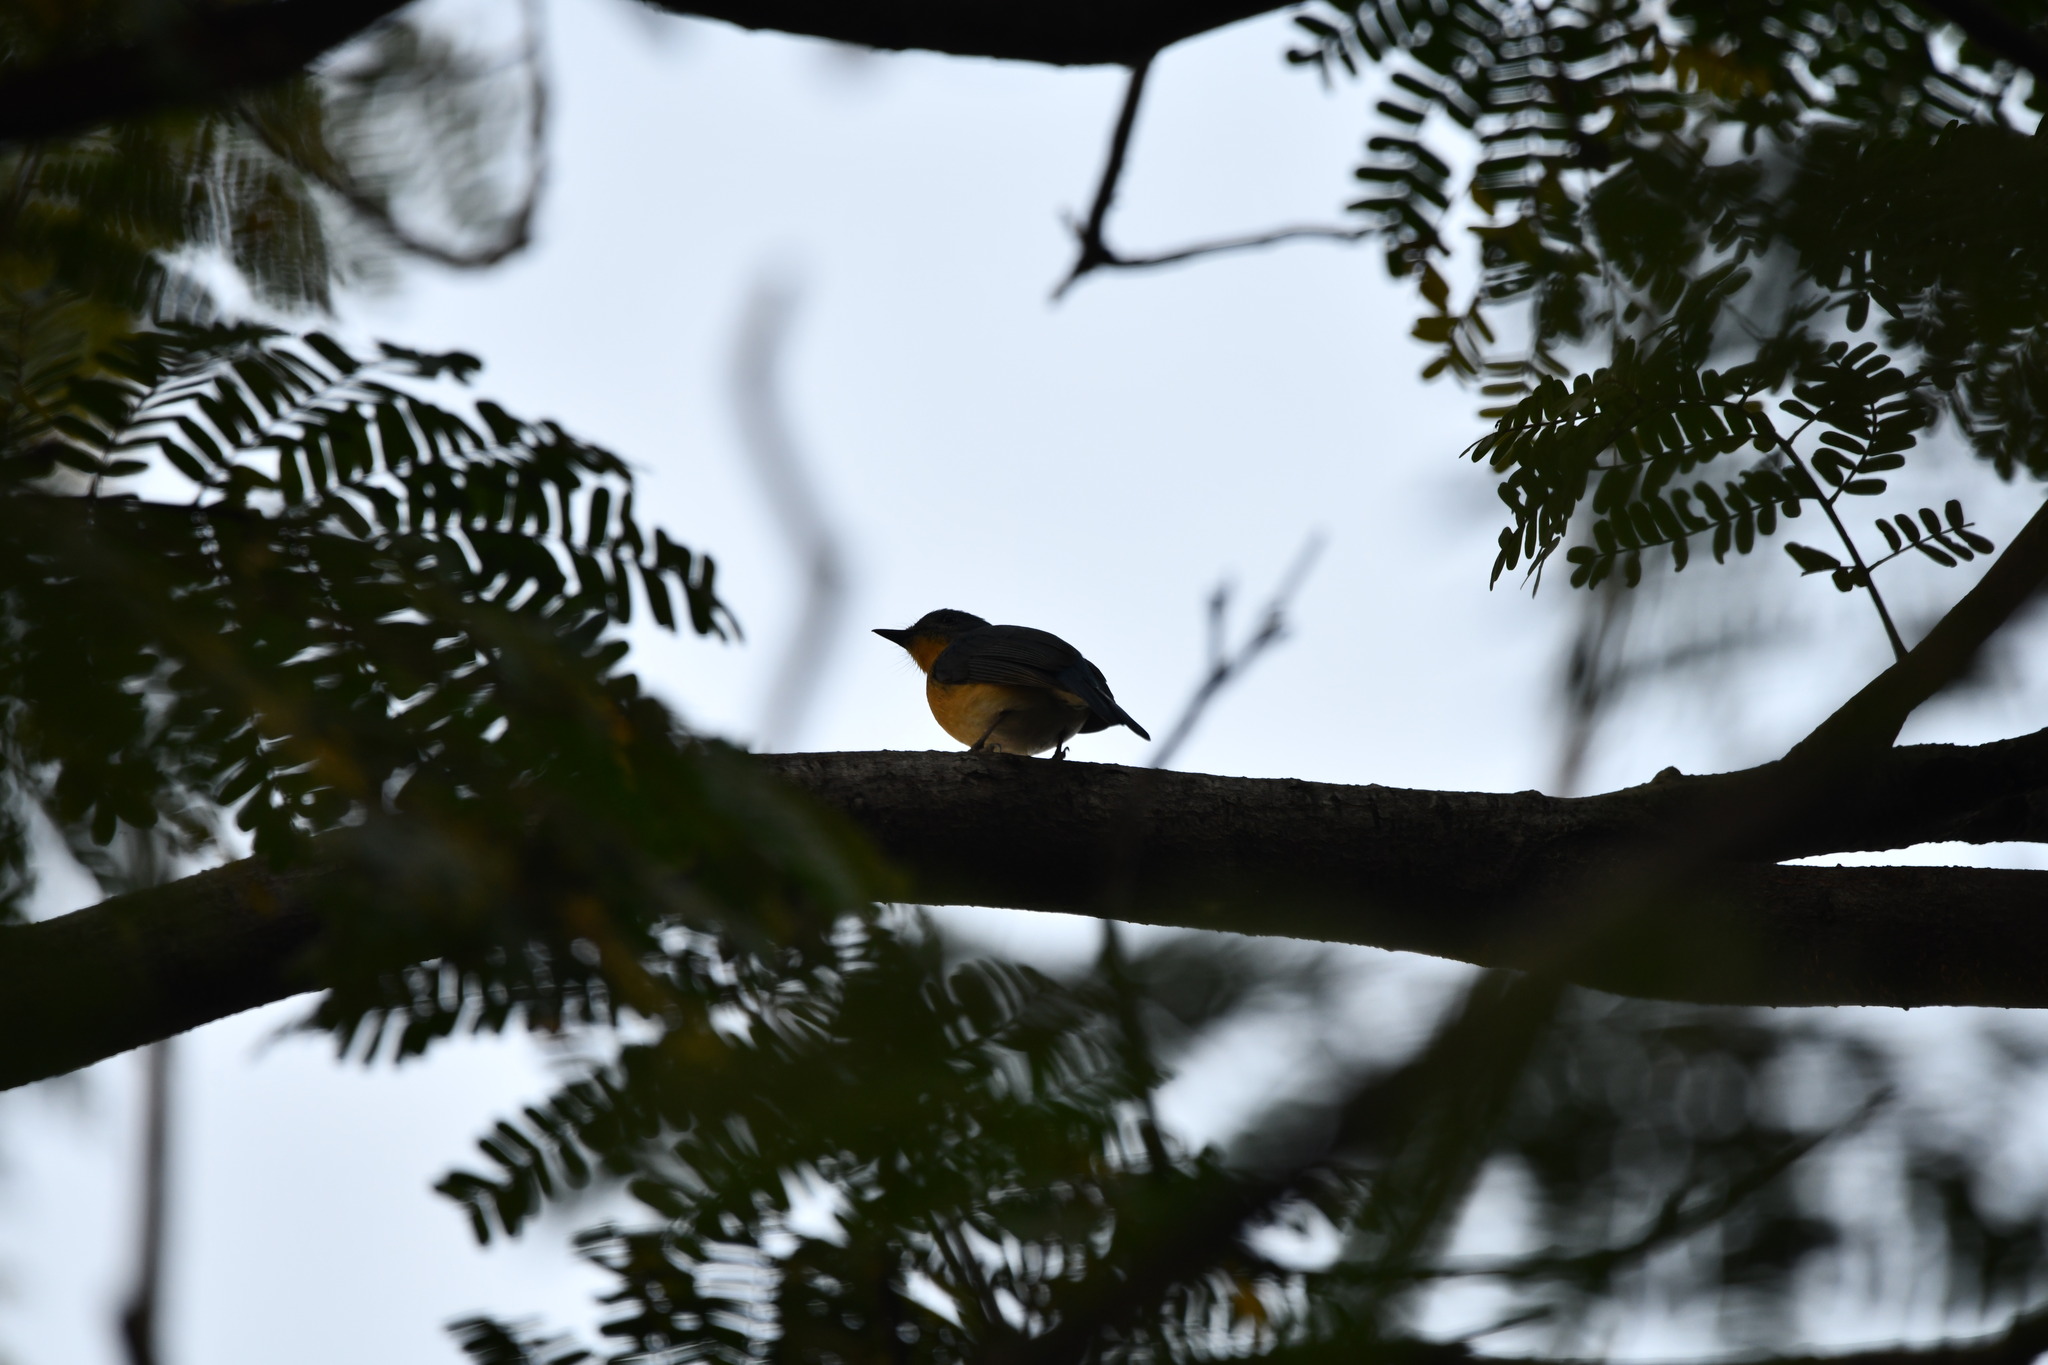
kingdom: Animalia
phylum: Chordata
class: Aves
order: Passeriformes
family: Muscicapidae
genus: Cyornis
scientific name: Cyornis tickelliae
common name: Tickell's blue flycatcher
